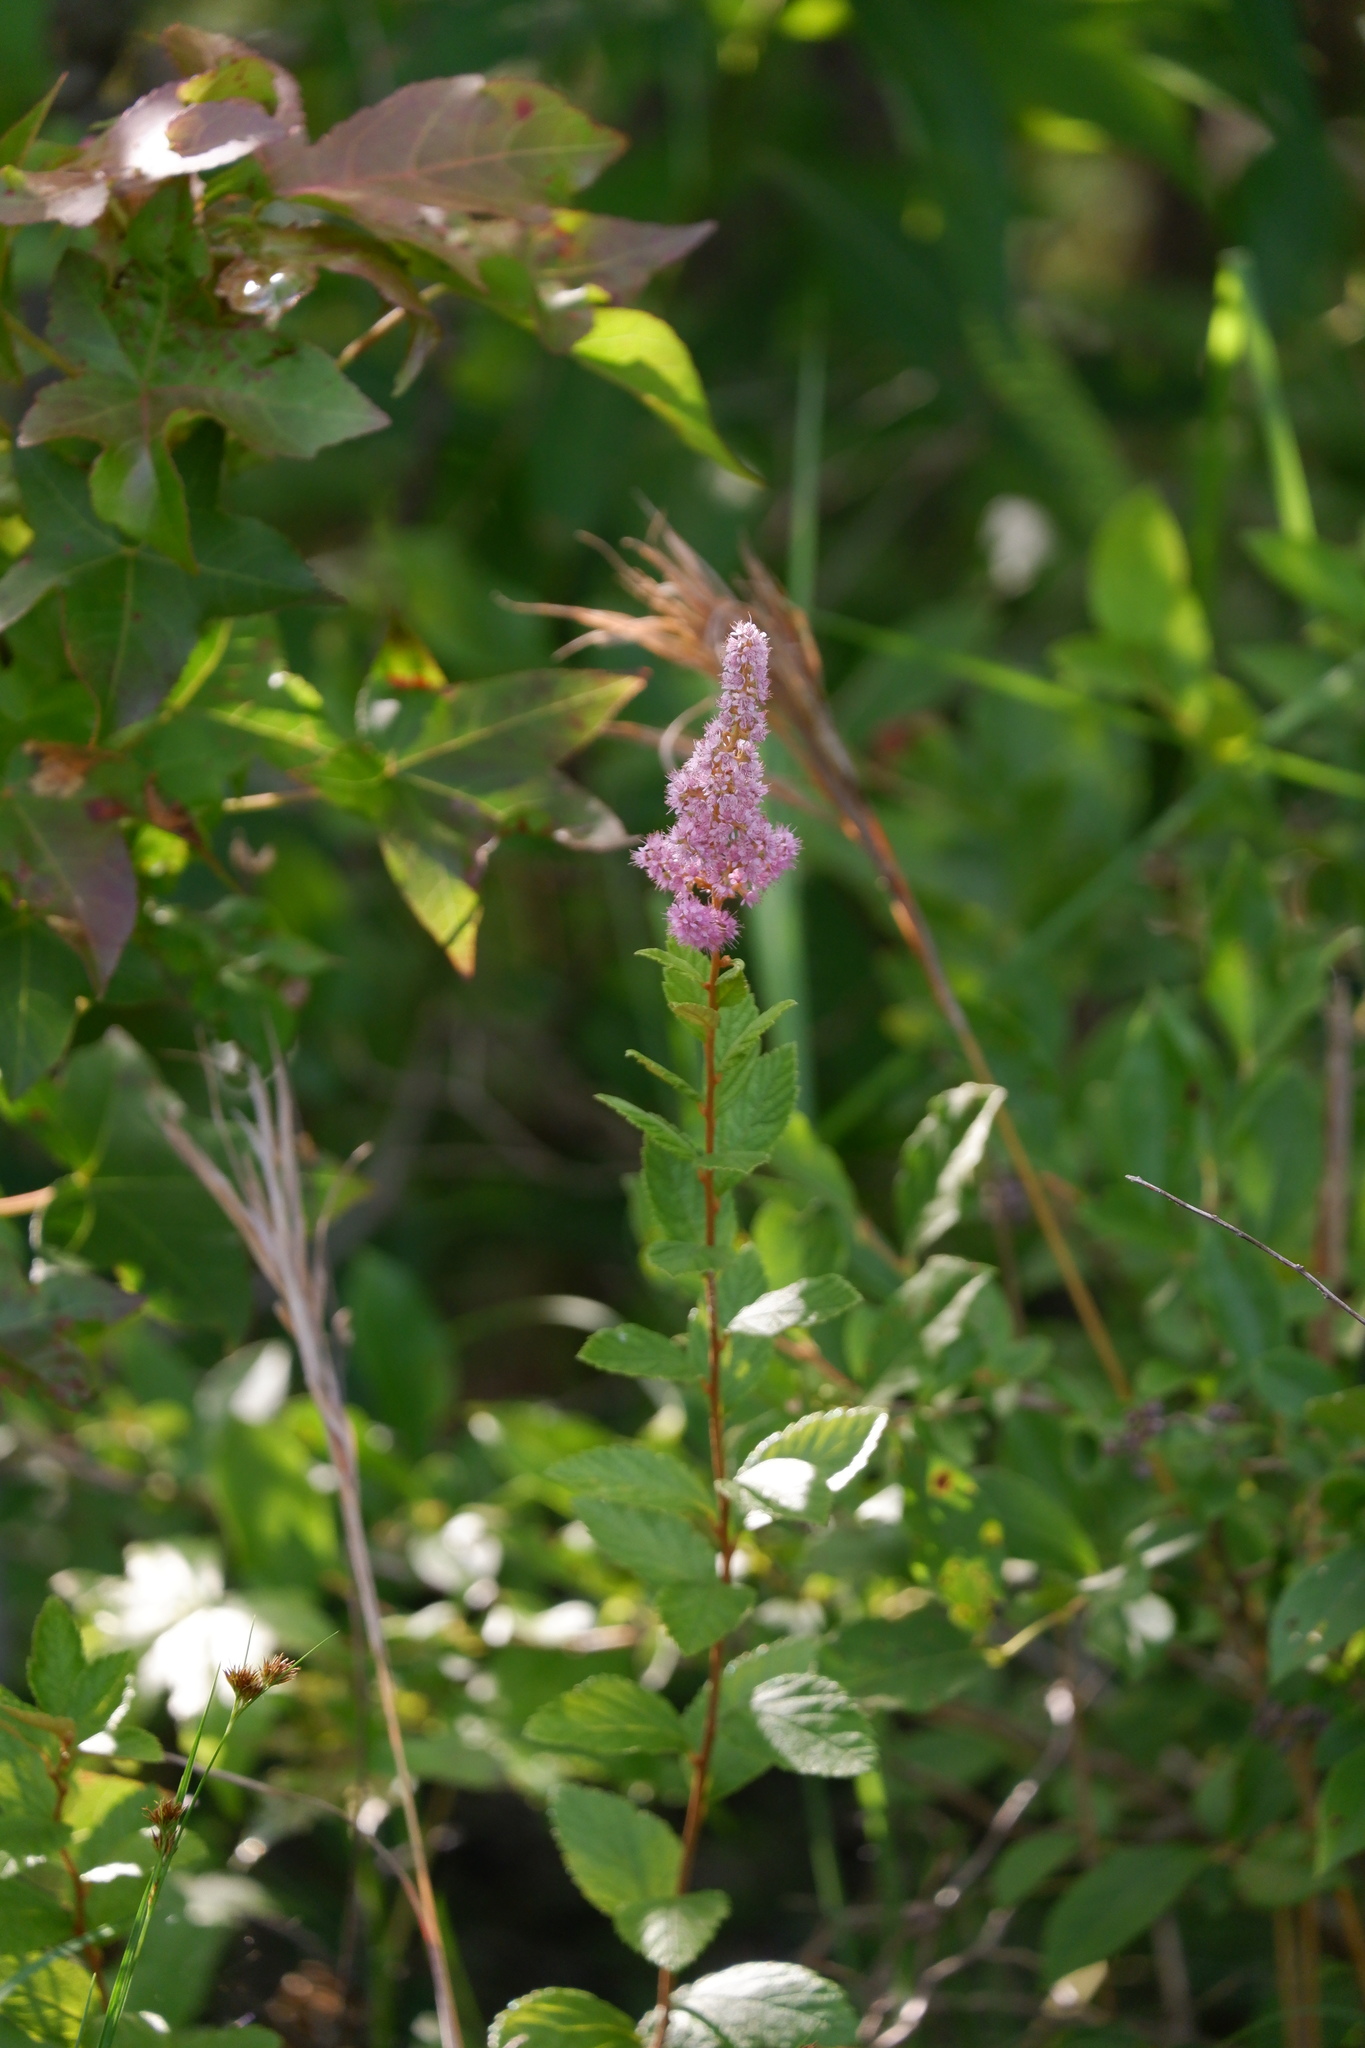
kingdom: Plantae
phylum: Tracheophyta
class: Magnoliopsida
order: Rosales
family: Rosaceae
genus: Spiraea
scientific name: Spiraea tomentosa
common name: Hardhack
